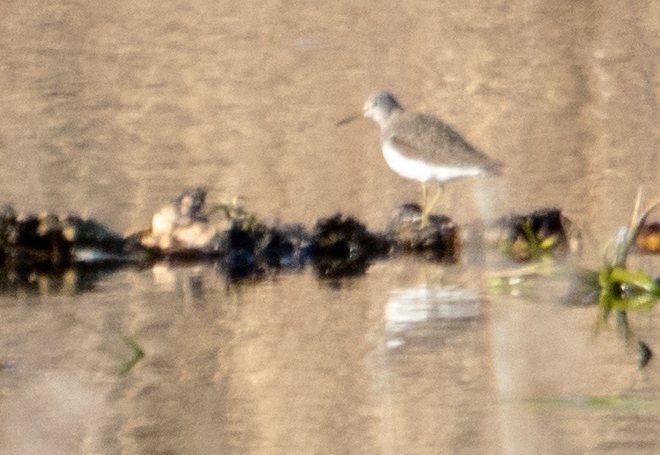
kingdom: Animalia
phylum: Chordata
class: Aves
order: Charadriiformes
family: Scolopacidae
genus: Tringa
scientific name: Tringa ochropus
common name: Green sandpiper
